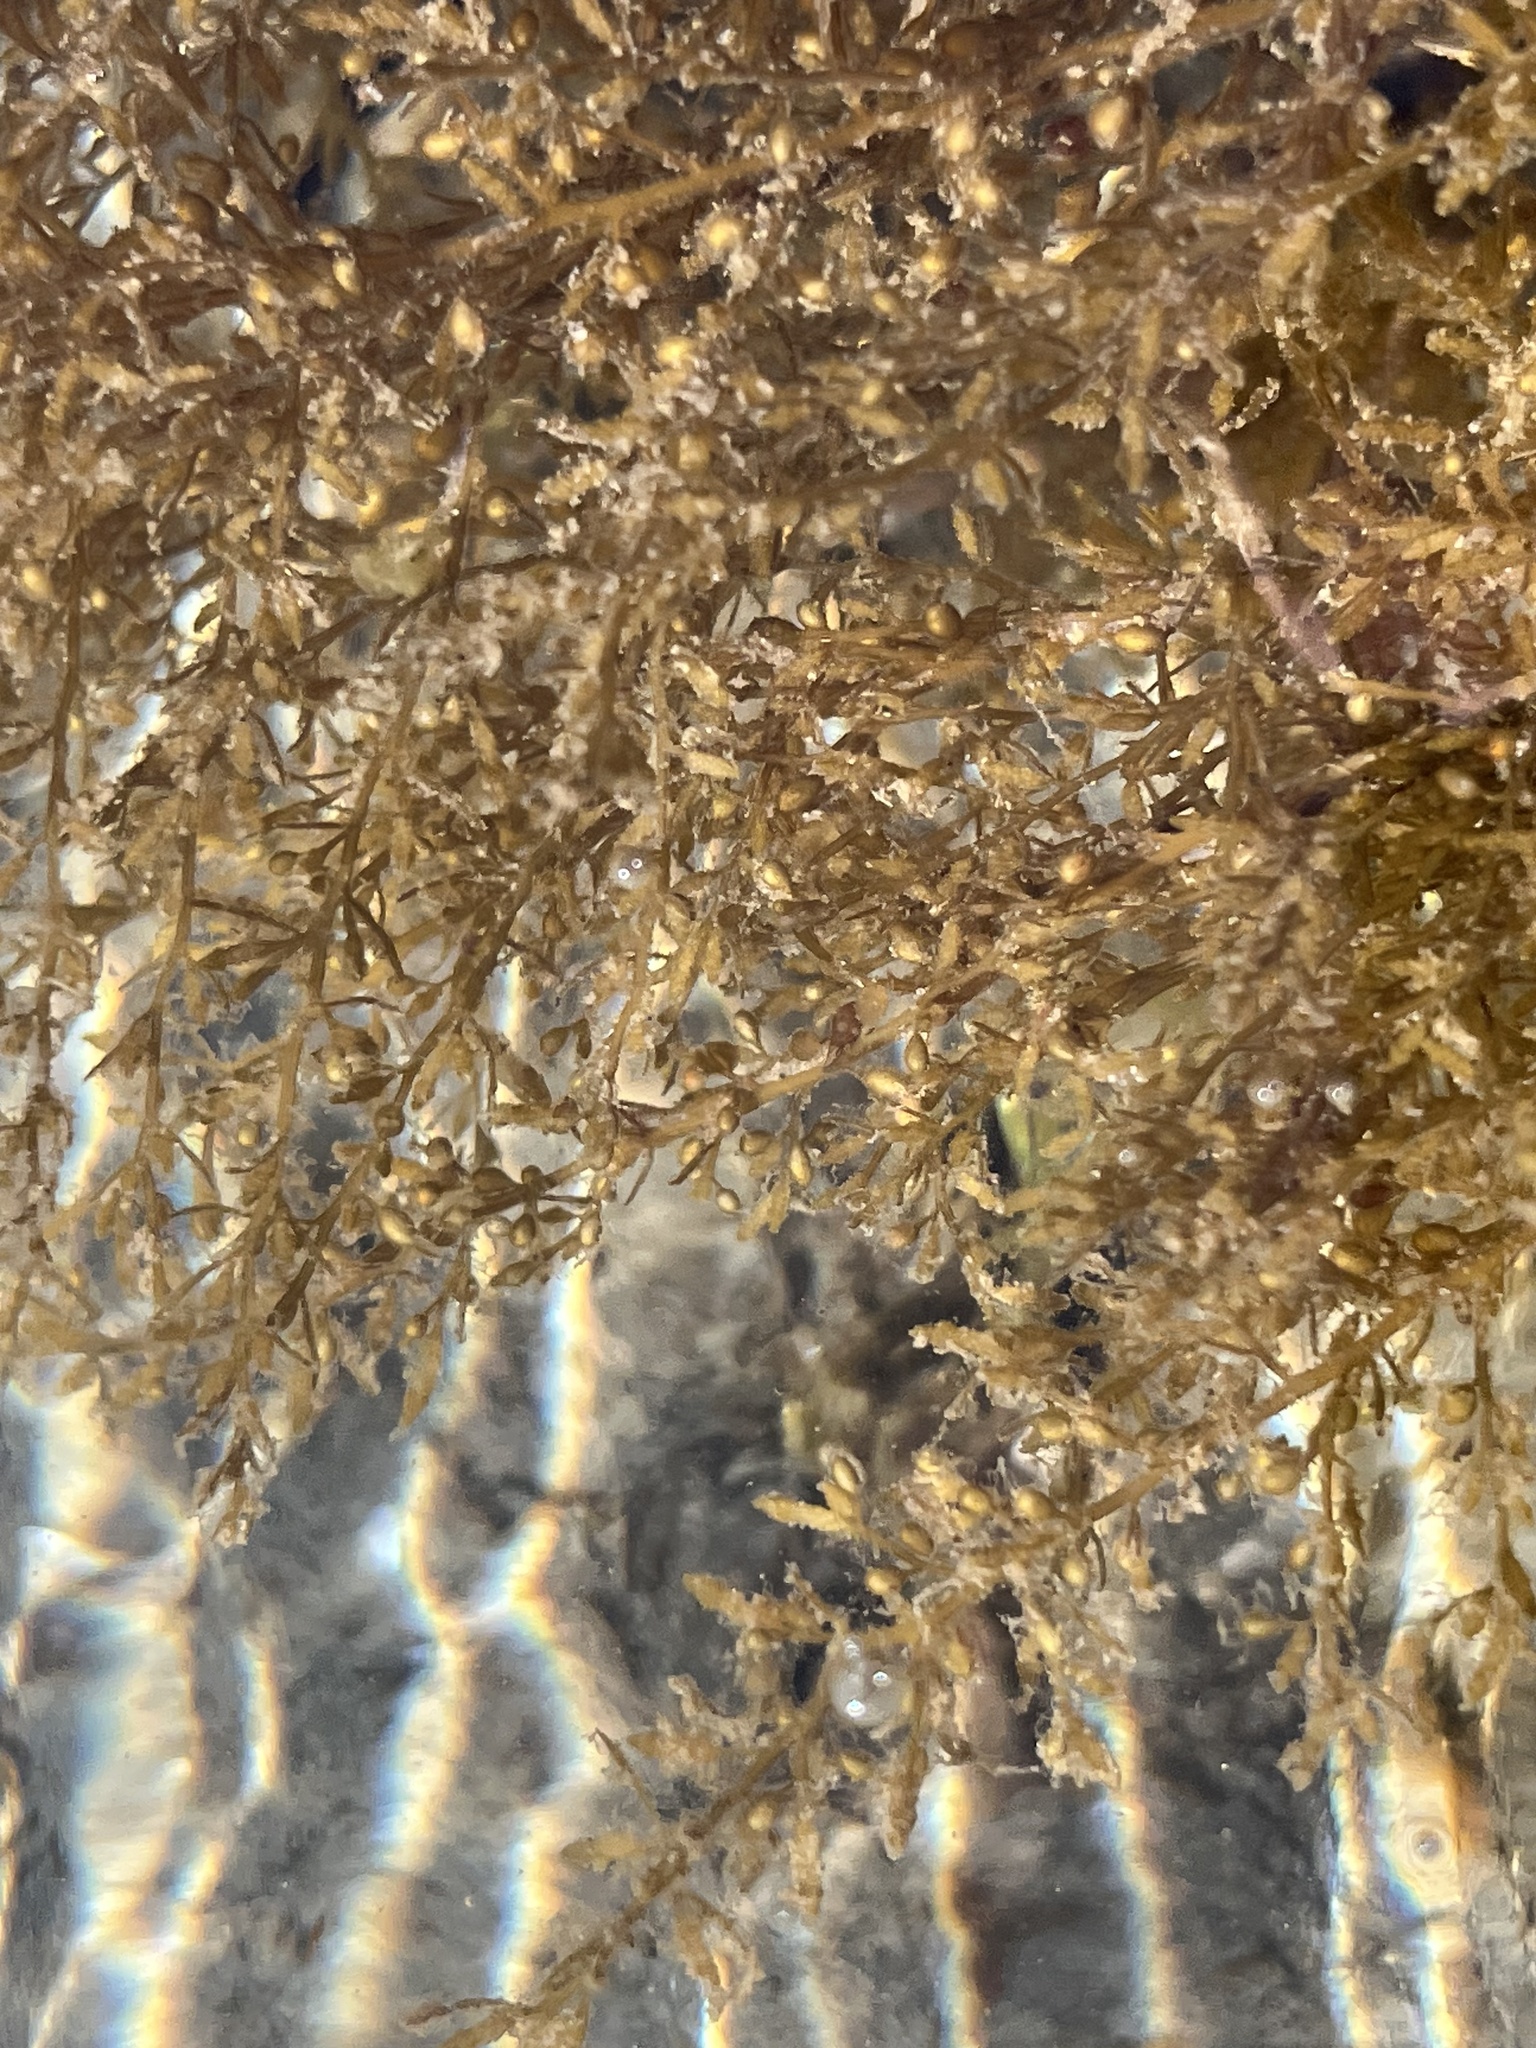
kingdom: Chromista
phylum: Ochrophyta
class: Phaeophyceae
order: Fucales
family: Sargassaceae
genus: Sargassum
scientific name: Sargassum muticum
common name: Japweed
